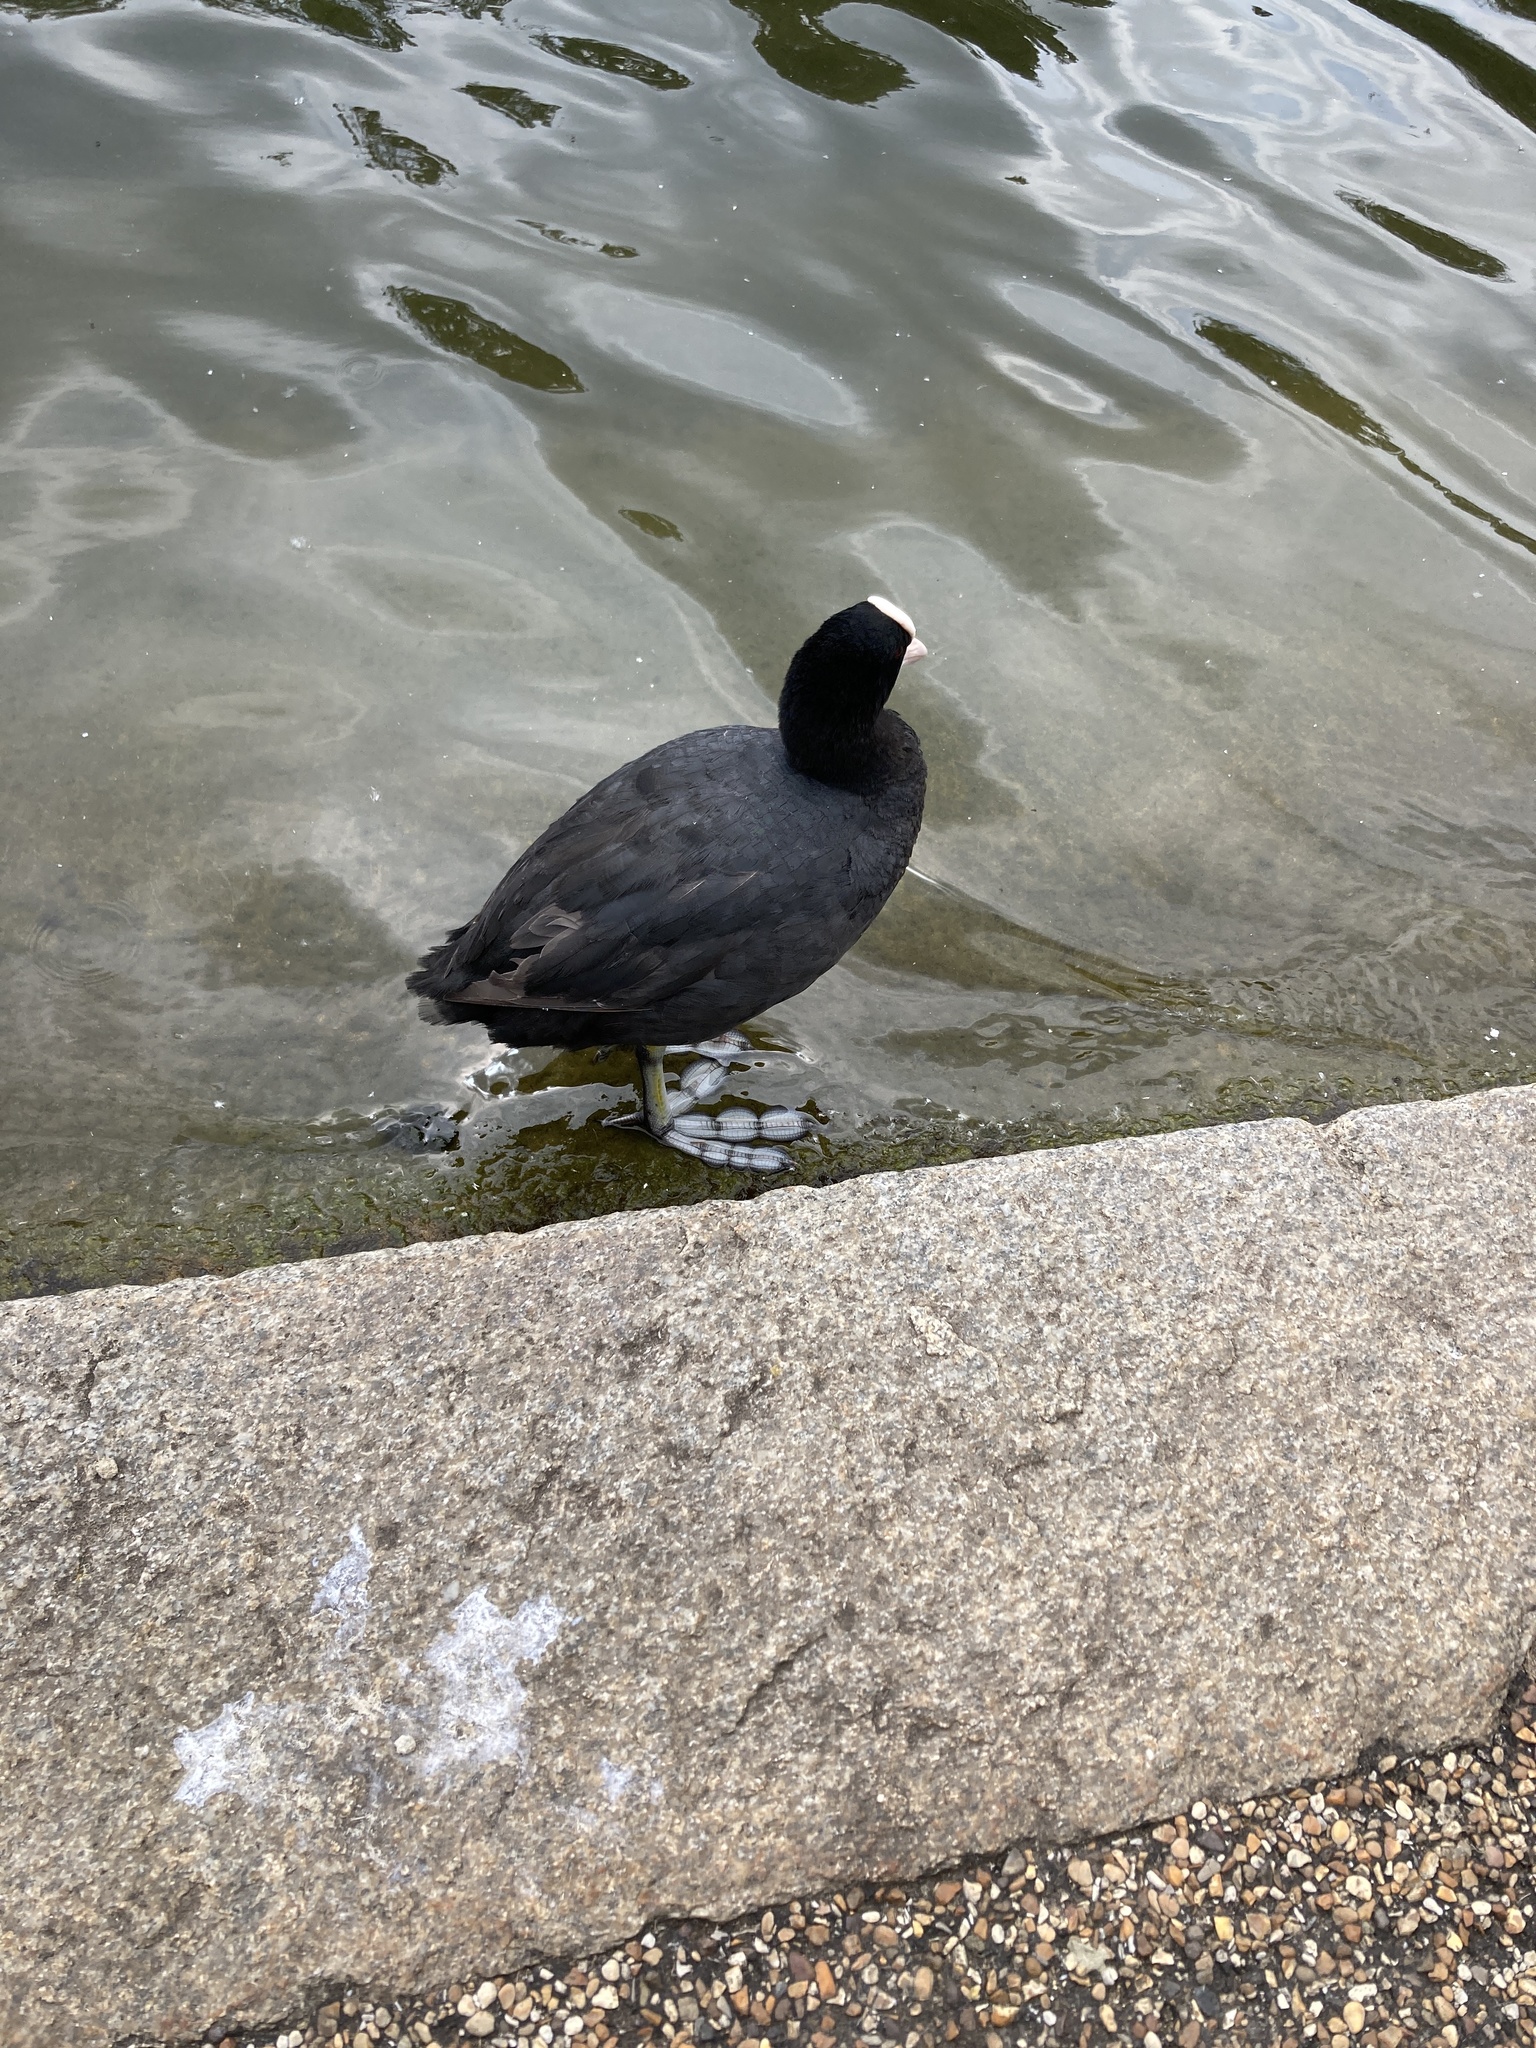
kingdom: Animalia
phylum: Chordata
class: Aves
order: Gruiformes
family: Rallidae
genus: Fulica
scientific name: Fulica atra
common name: Eurasian coot
